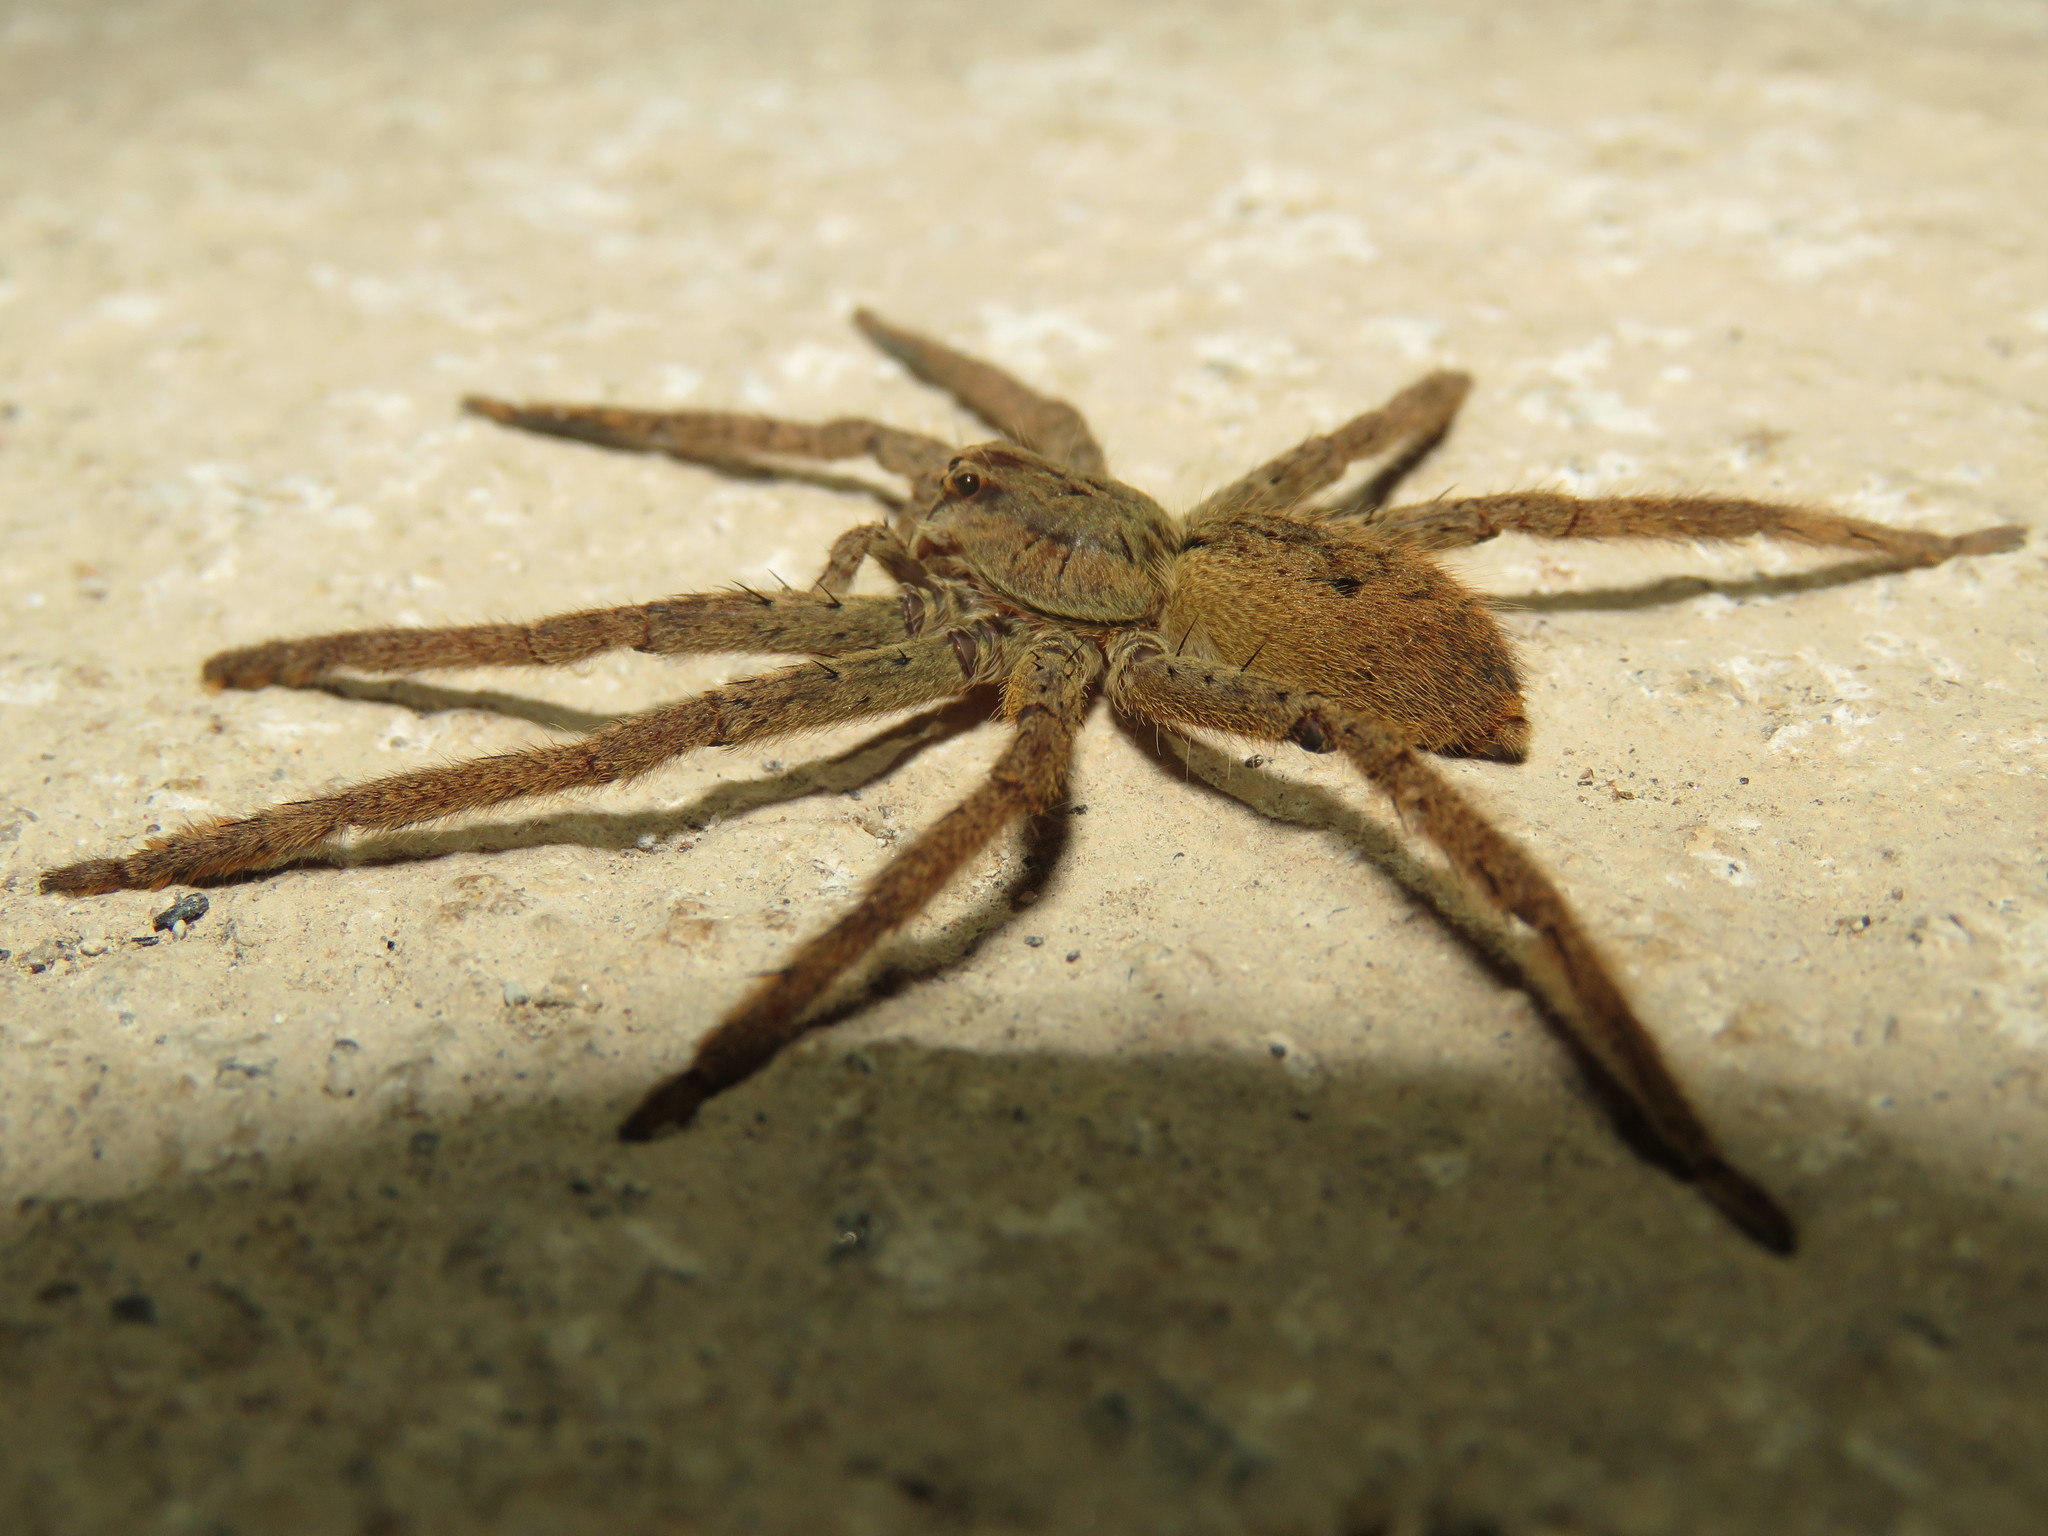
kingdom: Animalia
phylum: Arthropoda
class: Arachnida
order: Araneae
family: Trechaleidae
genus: Cupiennius
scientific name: Cupiennius coccineus
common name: Wandering spiders
